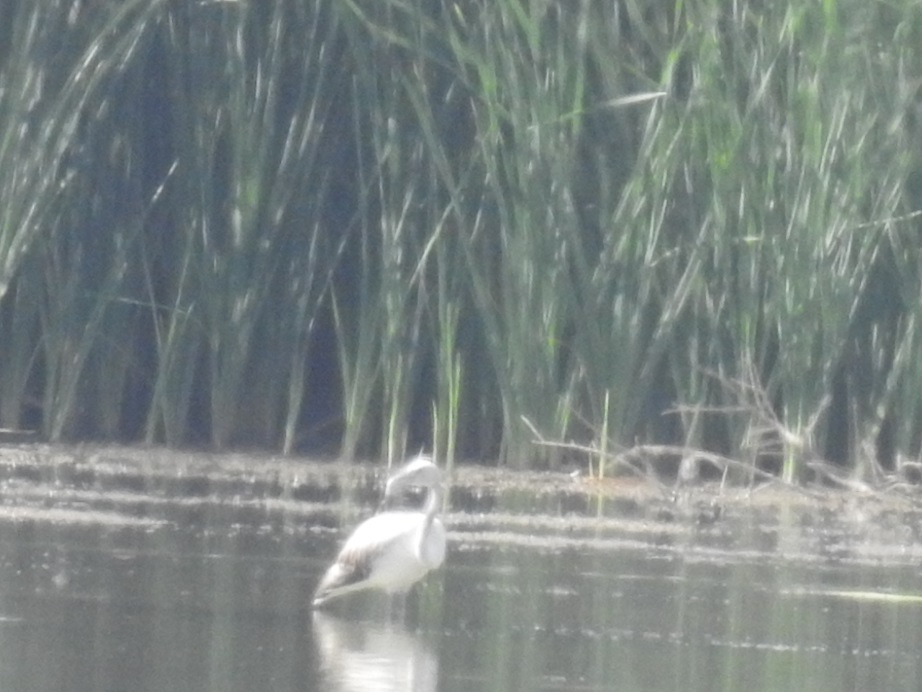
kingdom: Animalia
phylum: Chordata
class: Aves
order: Phoenicopteriformes
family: Phoenicopteridae
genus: Phoenicopterus
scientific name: Phoenicopterus roseus
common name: Greater flamingo
